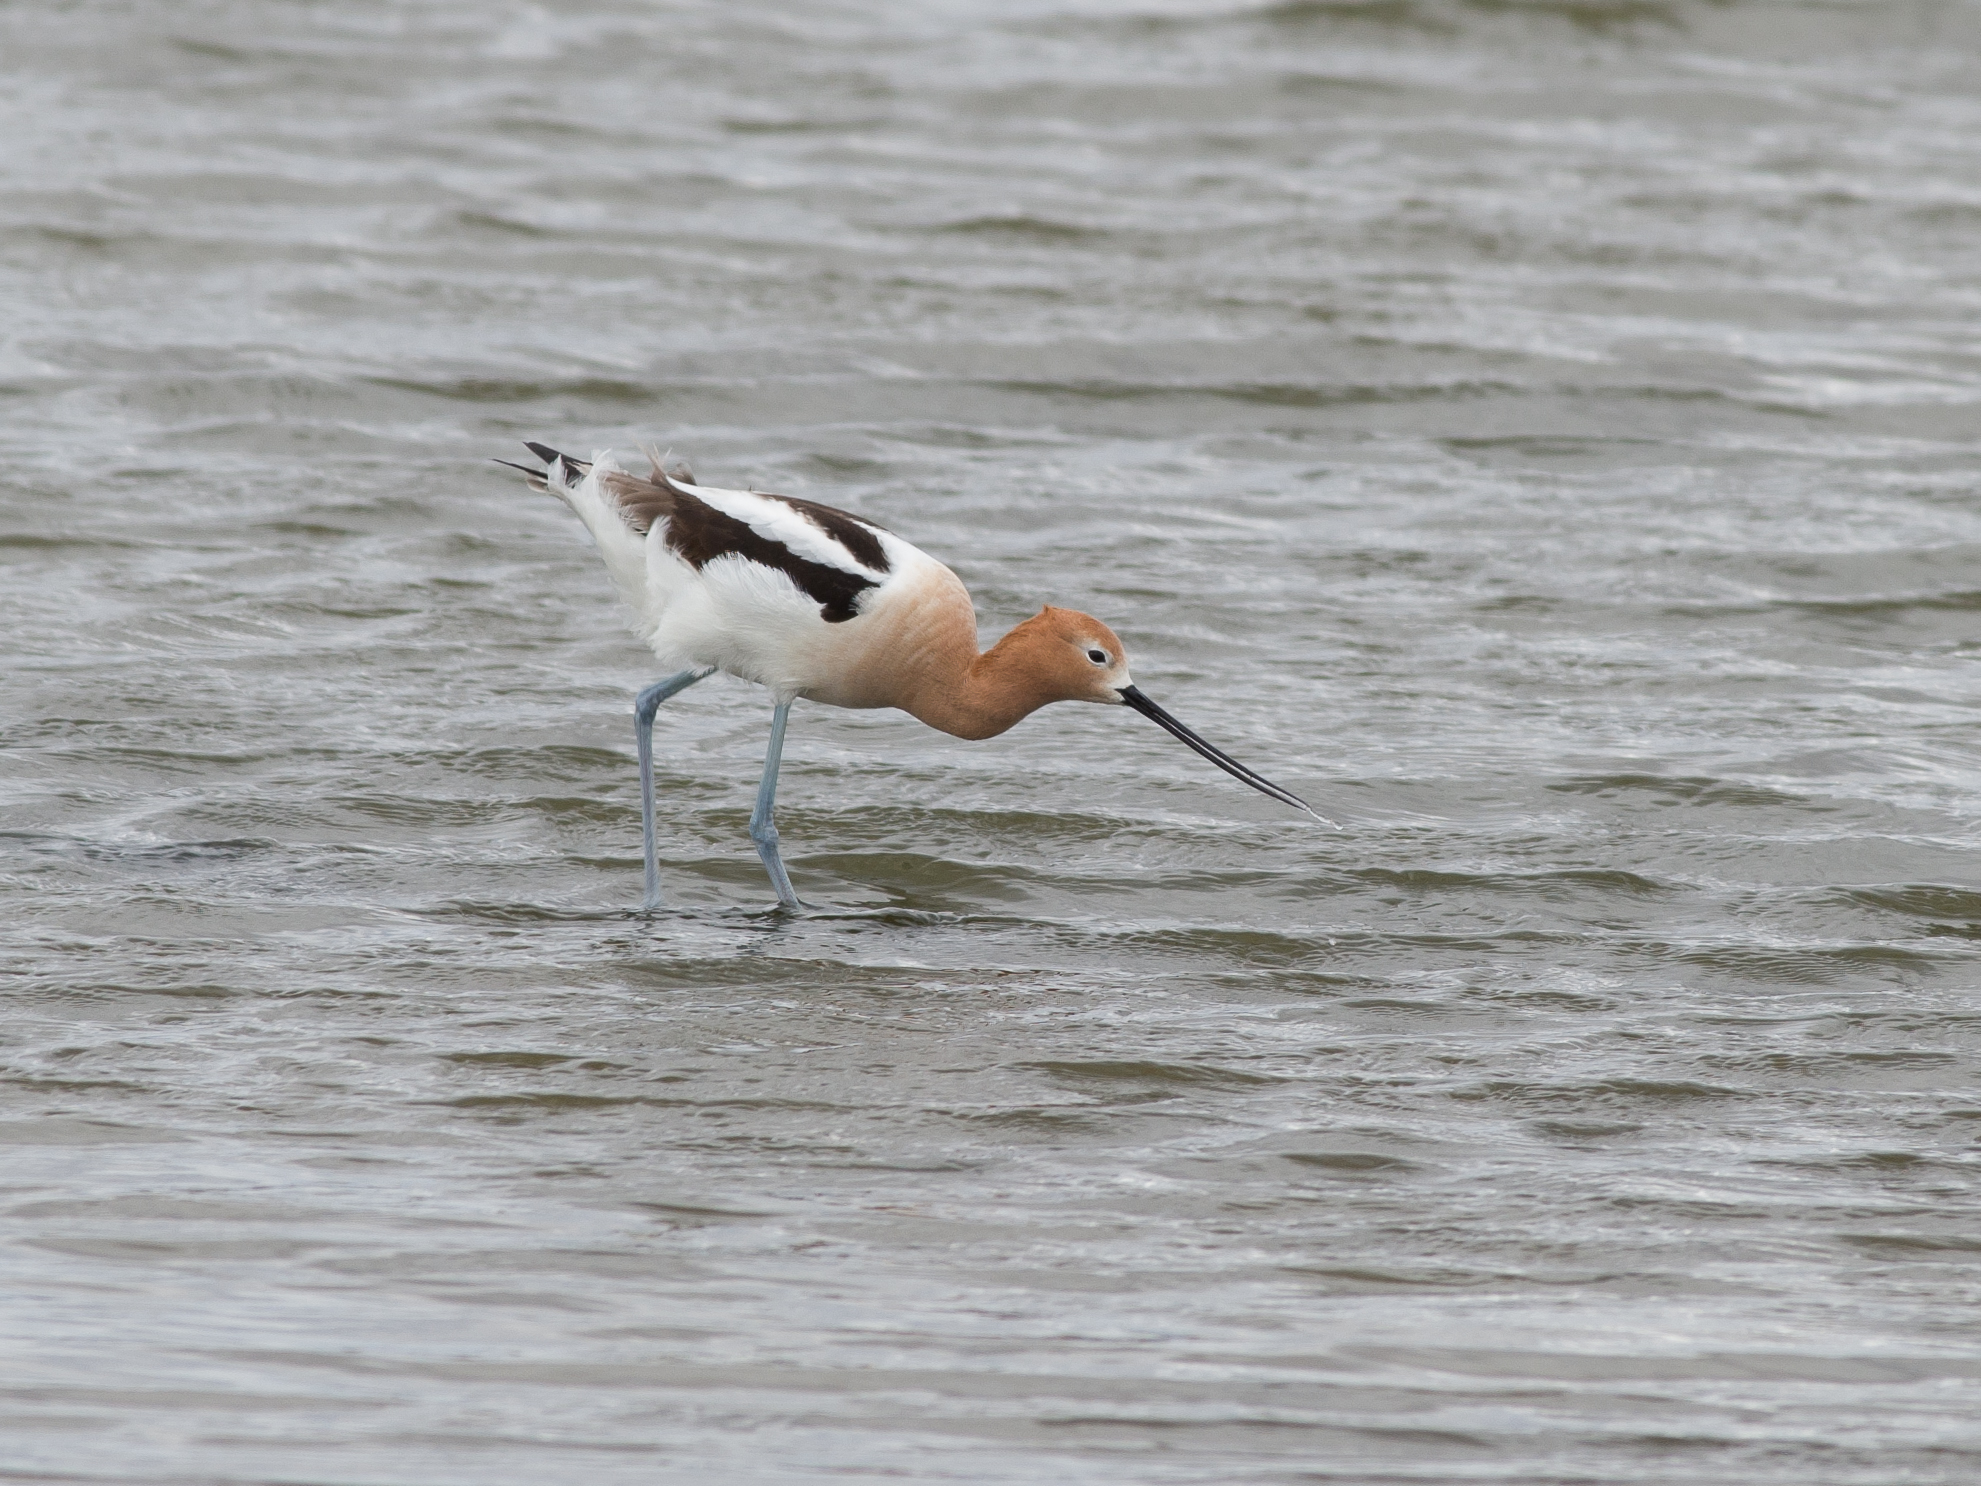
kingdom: Animalia
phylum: Chordata
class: Aves
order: Charadriiformes
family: Recurvirostridae
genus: Recurvirostra
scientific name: Recurvirostra americana
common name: American avocet
